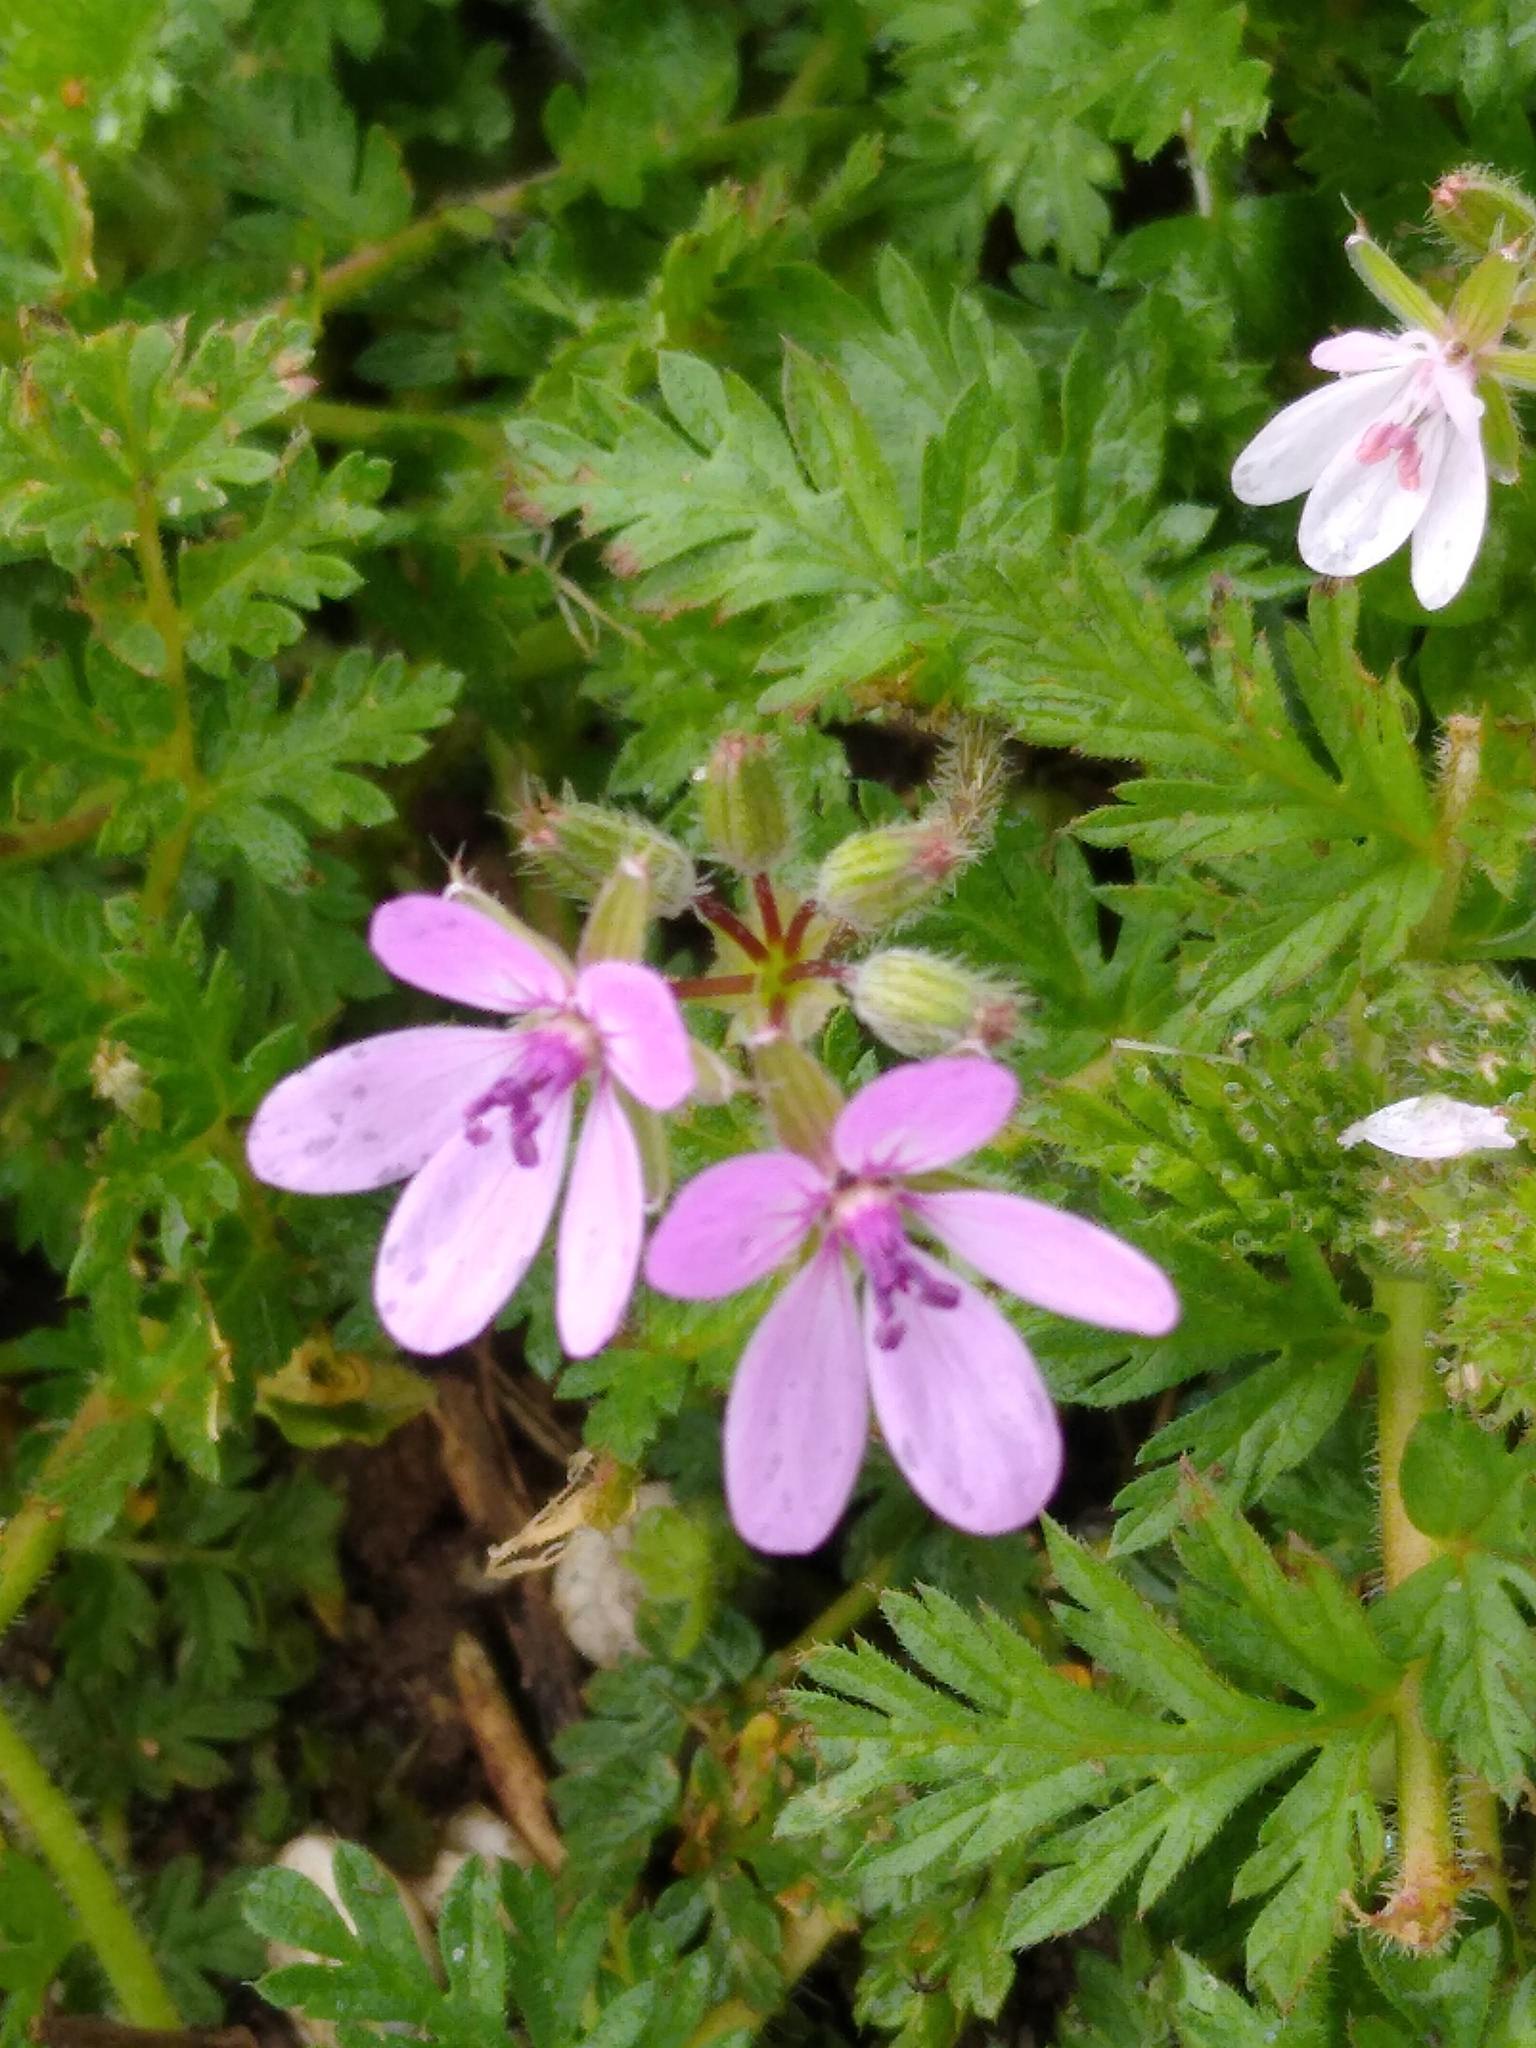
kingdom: Plantae
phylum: Tracheophyta
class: Magnoliopsida
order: Geraniales
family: Geraniaceae
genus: Erodium
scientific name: Erodium cicutarium
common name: Common stork's-bill
